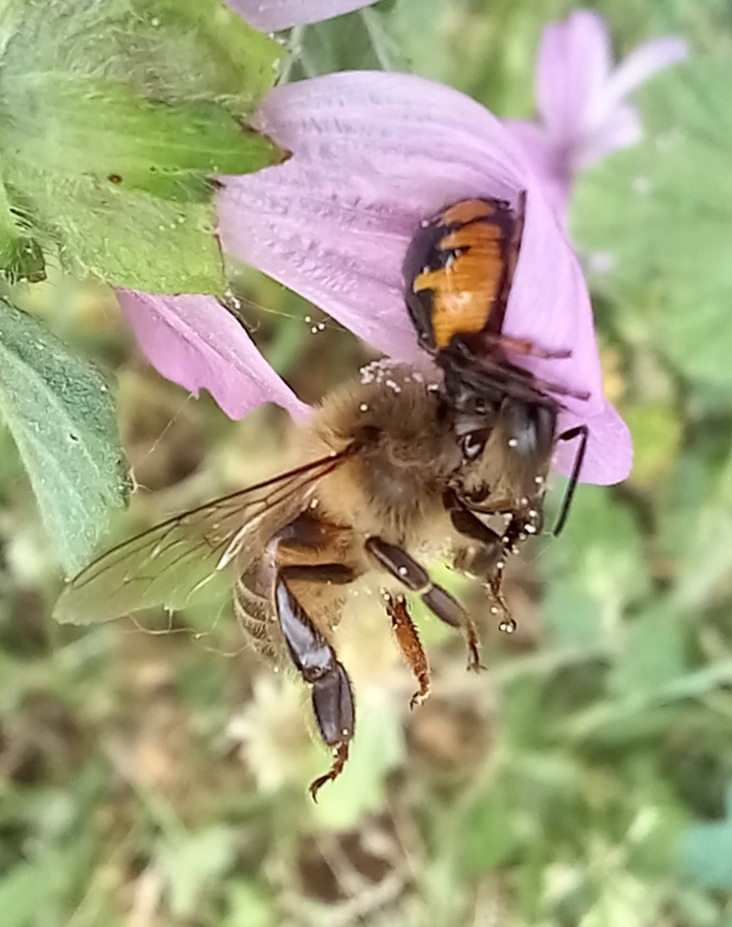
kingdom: Animalia
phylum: Arthropoda
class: Arachnida
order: Araneae
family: Thomisidae
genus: Synema
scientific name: Synema globosum
